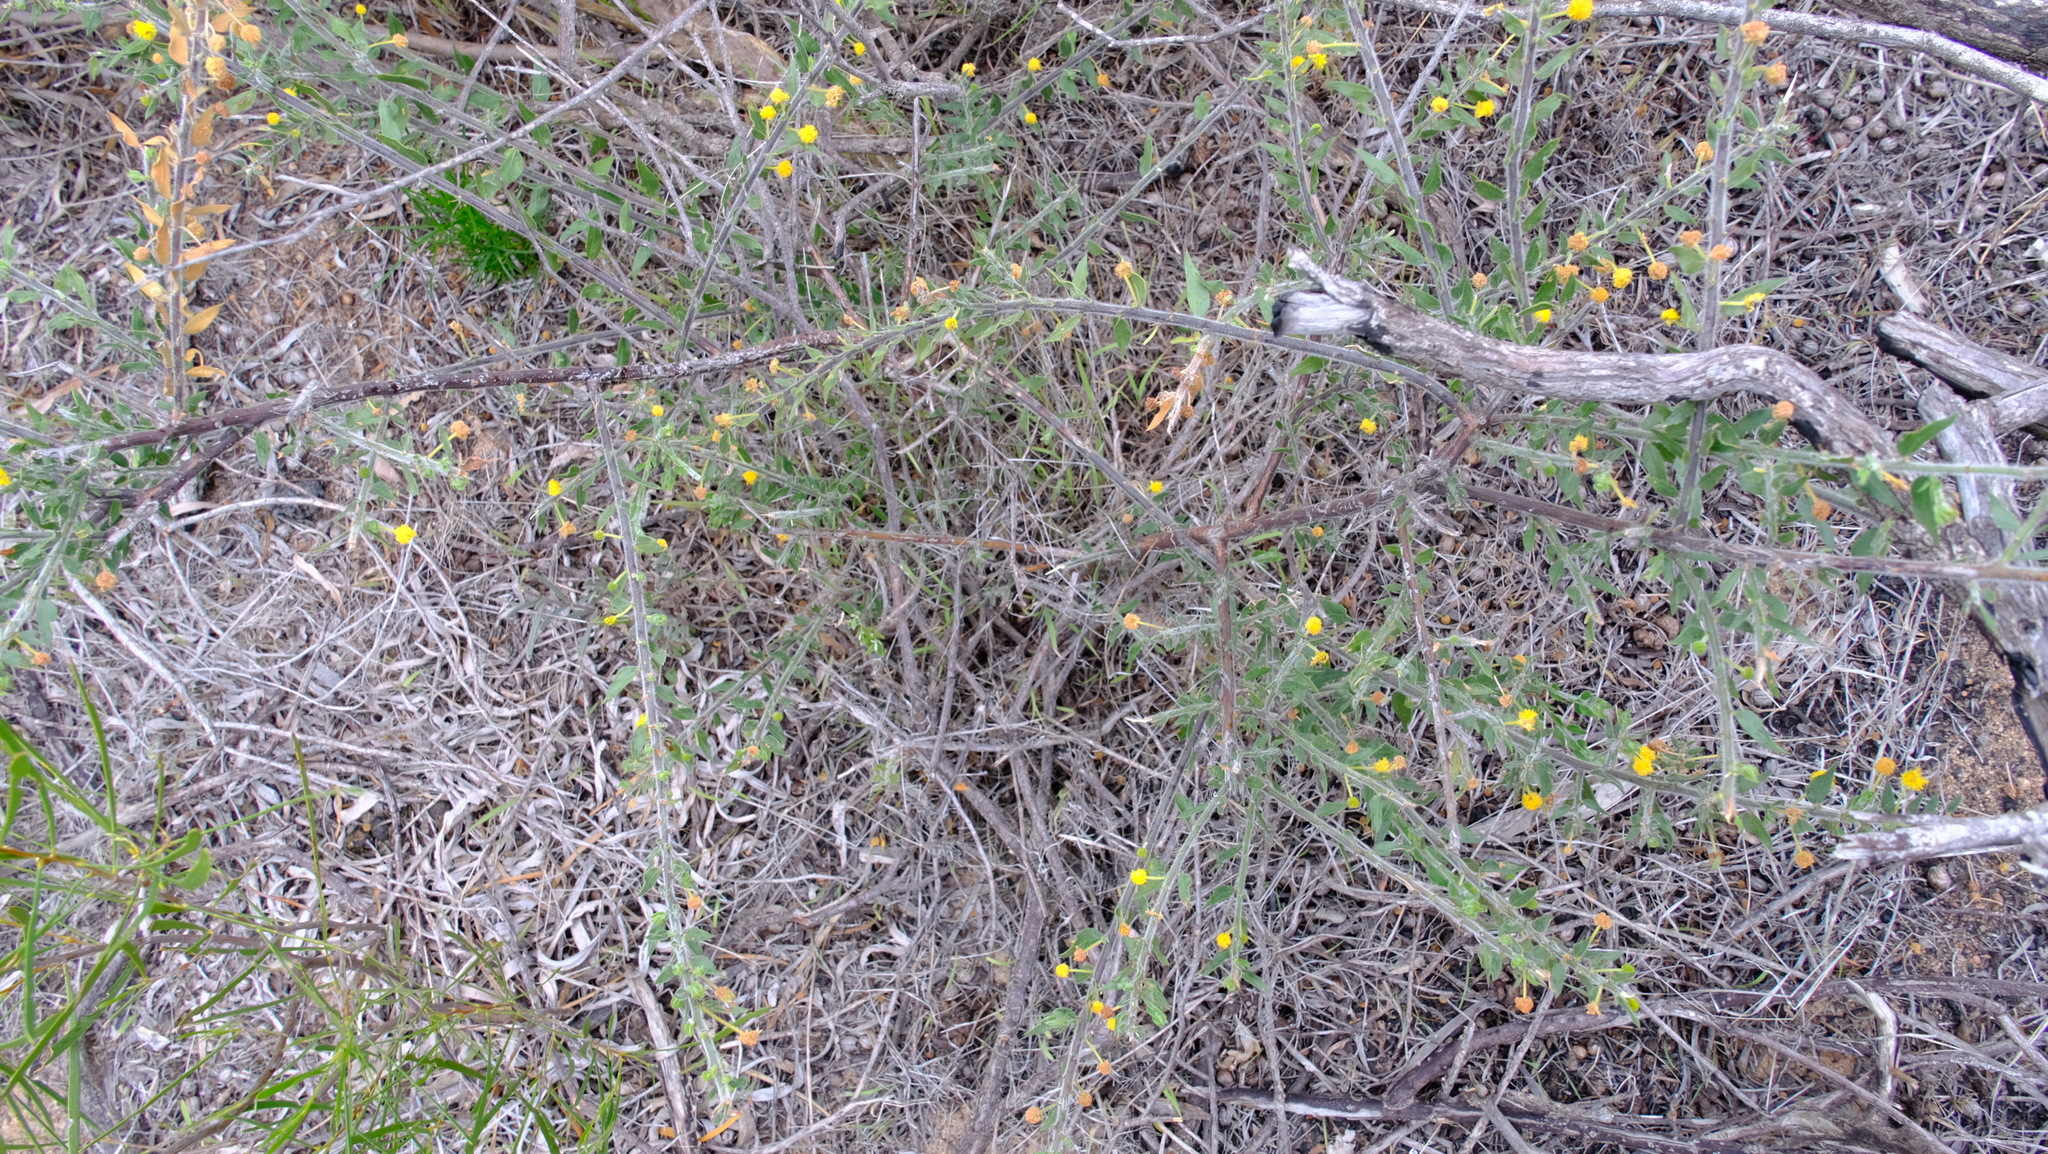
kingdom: Plantae
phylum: Tracheophyta
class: Magnoliopsida
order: Fabales
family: Fabaceae
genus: Acacia
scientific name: Acacia idiomorpha
